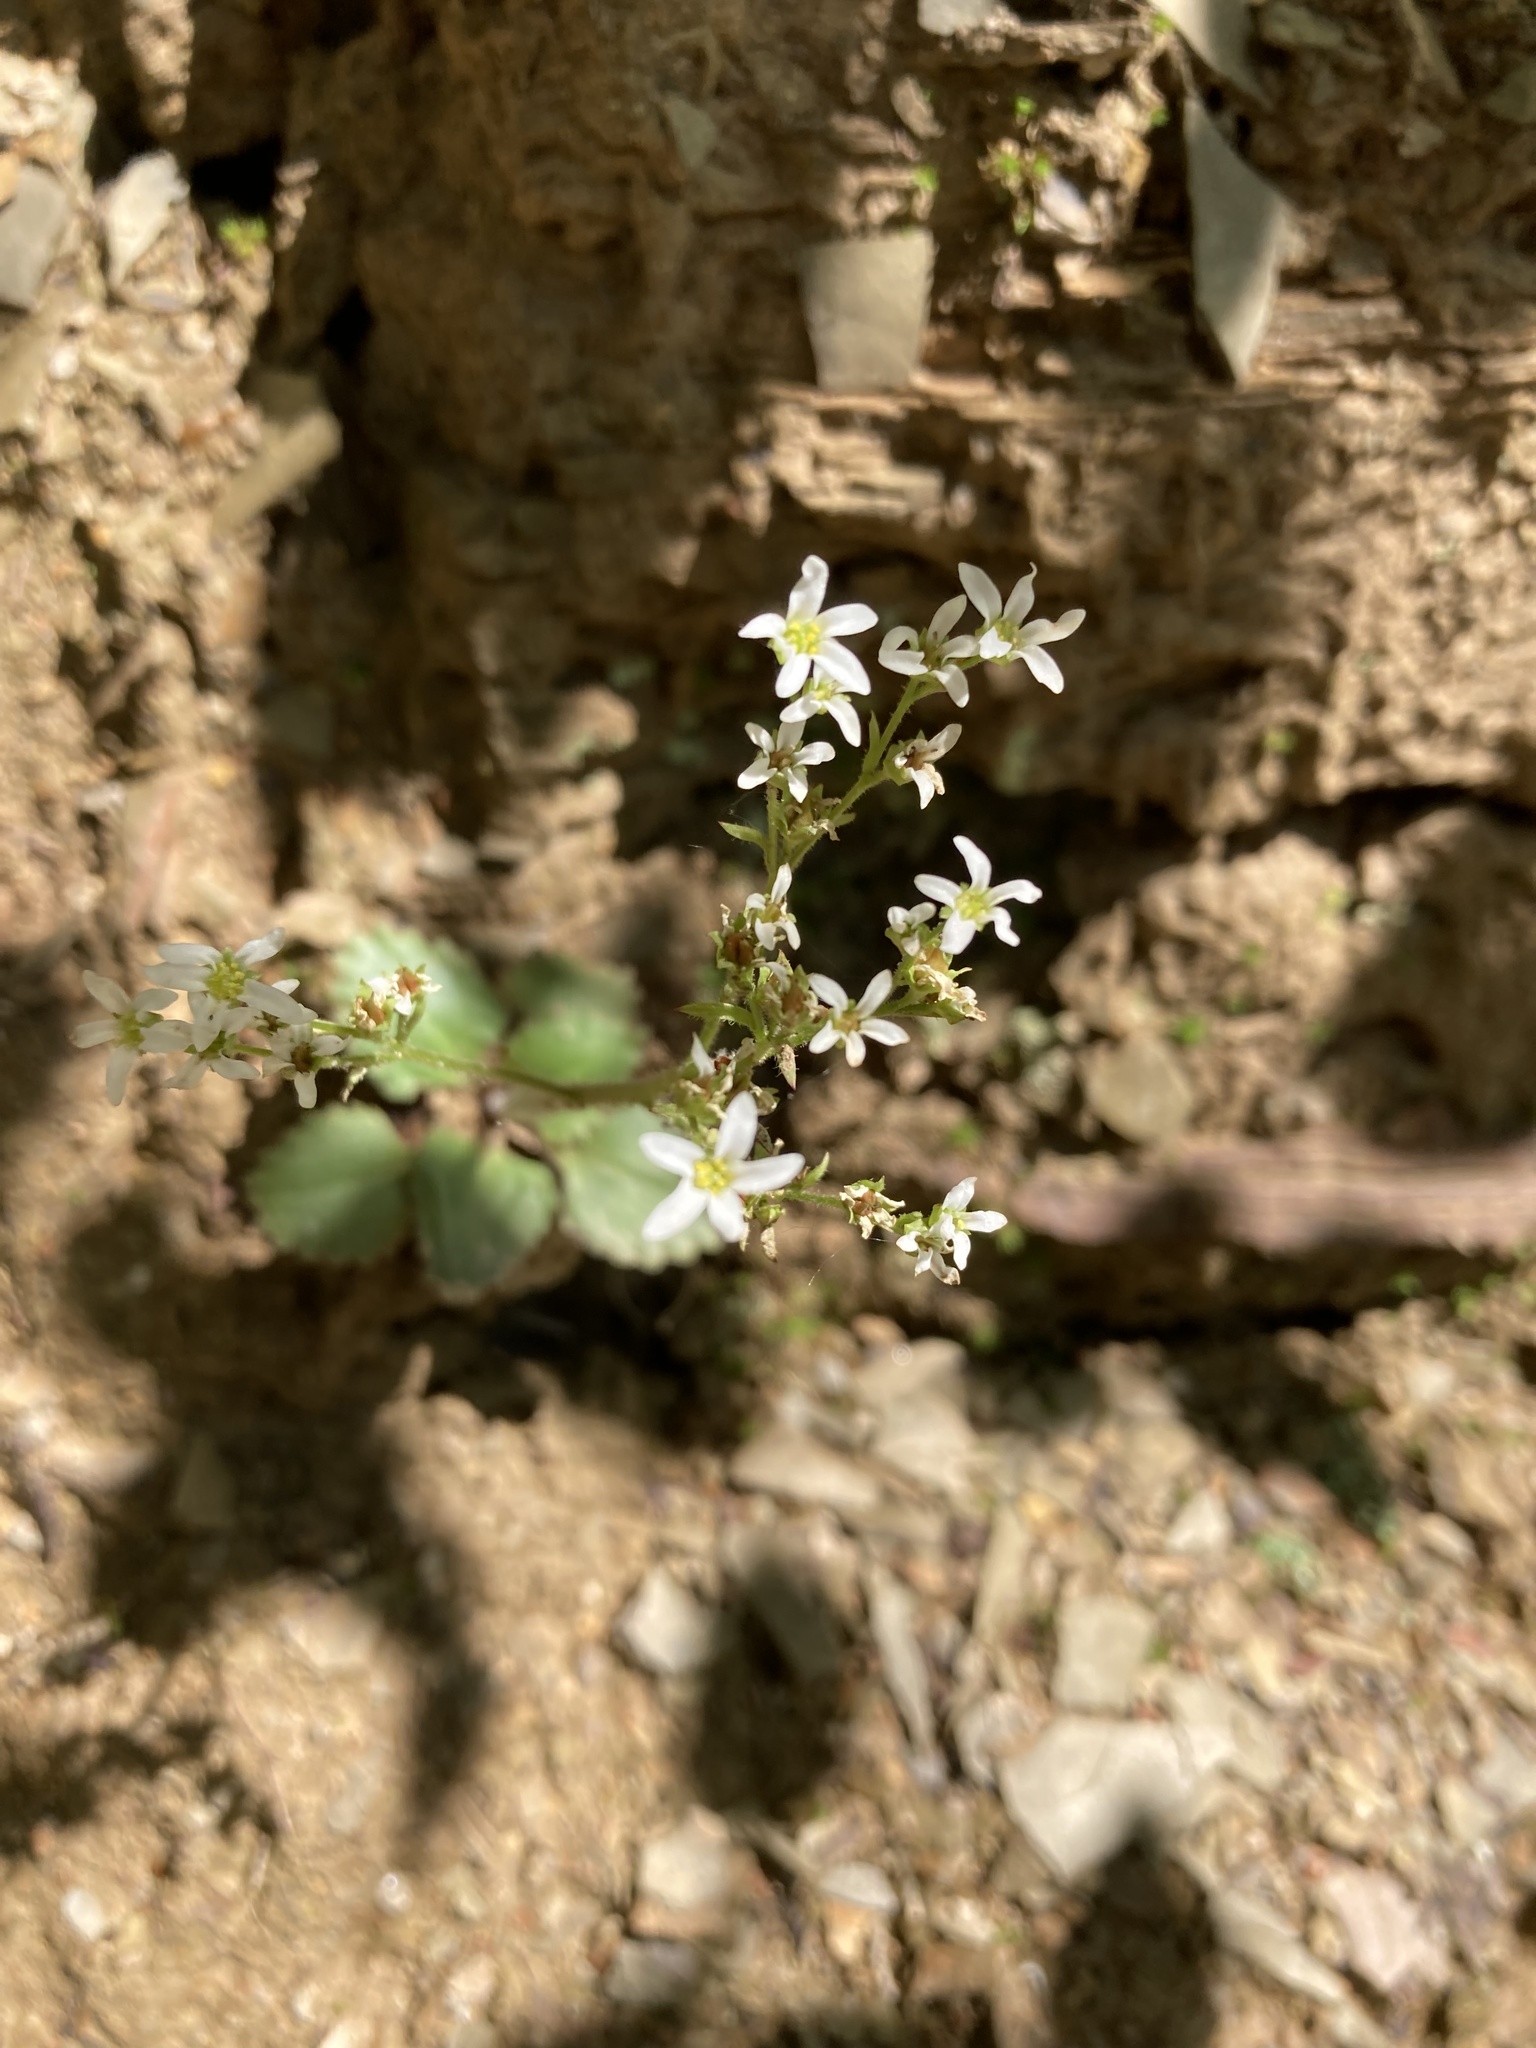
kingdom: Plantae
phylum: Tracheophyta
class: Magnoliopsida
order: Saxifragales
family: Saxifragaceae
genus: Micranthes
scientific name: Micranthes virginiensis
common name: Early saxifrage
